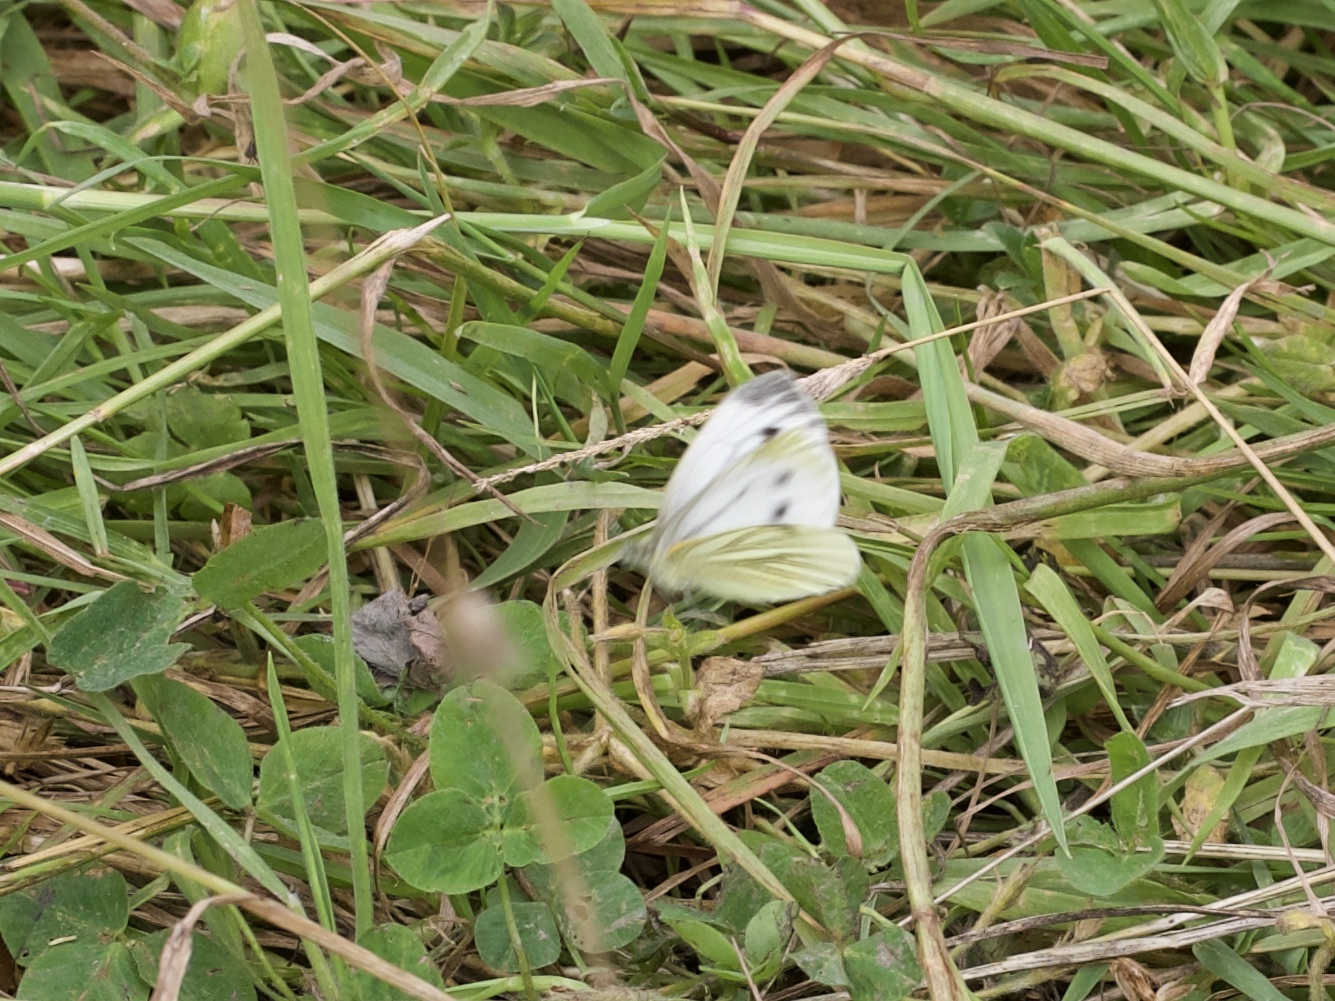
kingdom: Animalia
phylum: Arthropoda
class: Insecta
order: Lepidoptera
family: Pieridae
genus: Pieris
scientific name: Pieris napi
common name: Green-veined white
